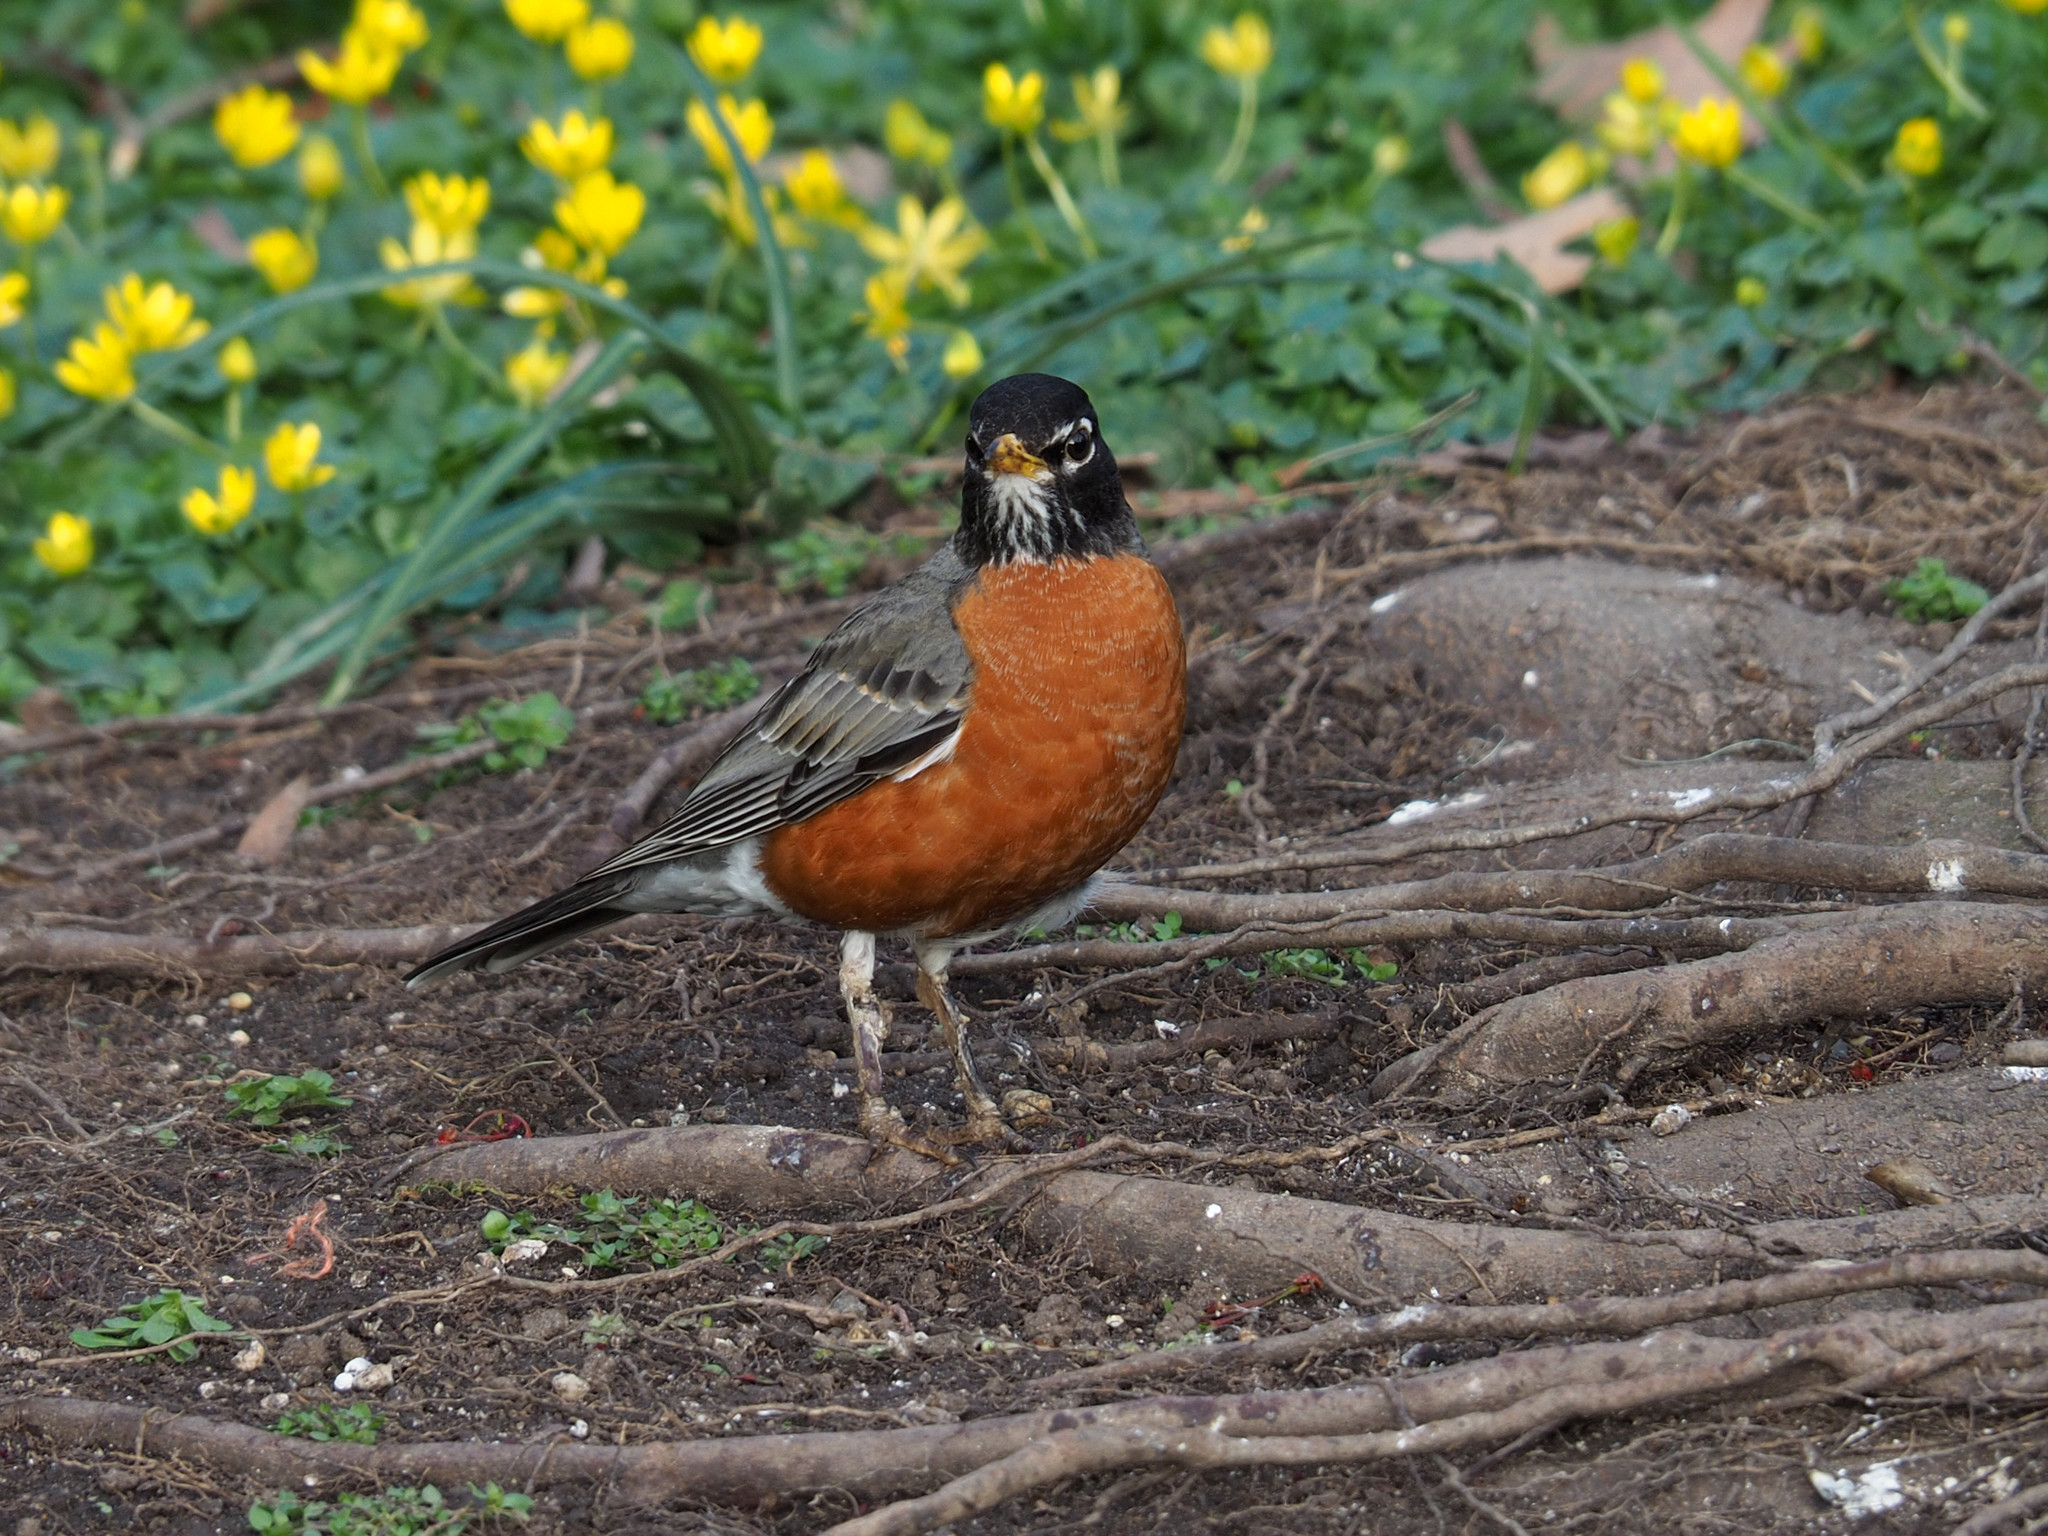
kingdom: Animalia
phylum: Chordata
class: Aves
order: Passeriformes
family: Turdidae
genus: Turdus
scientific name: Turdus migratorius
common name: American robin
